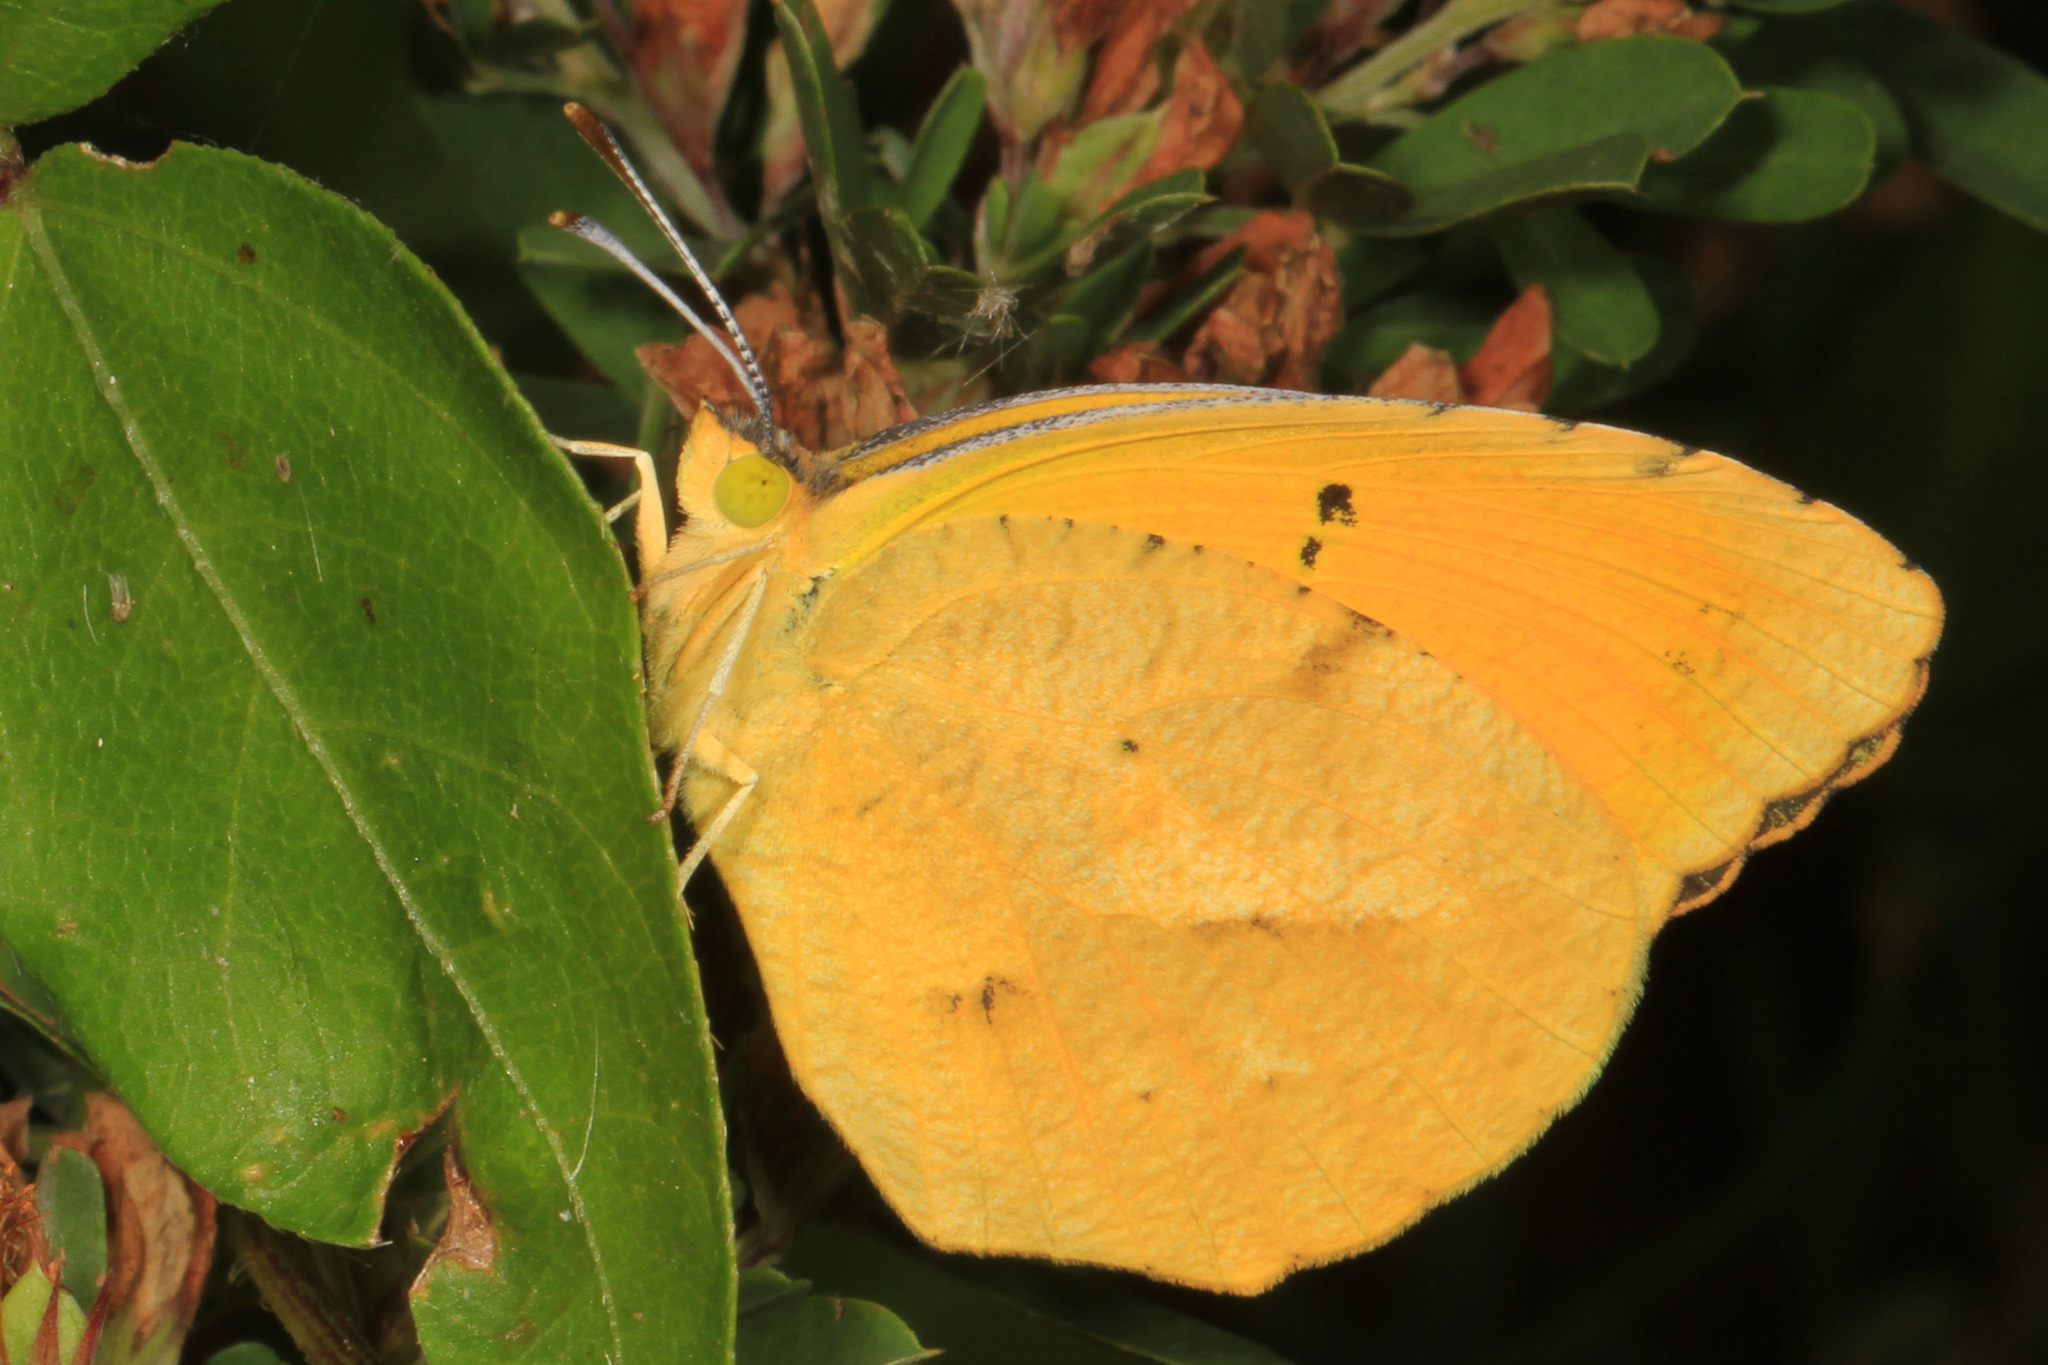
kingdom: Animalia
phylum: Arthropoda
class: Insecta
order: Lepidoptera
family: Pieridae
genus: Abaeis
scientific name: Abaeis nicippe
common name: Sleepy orange
